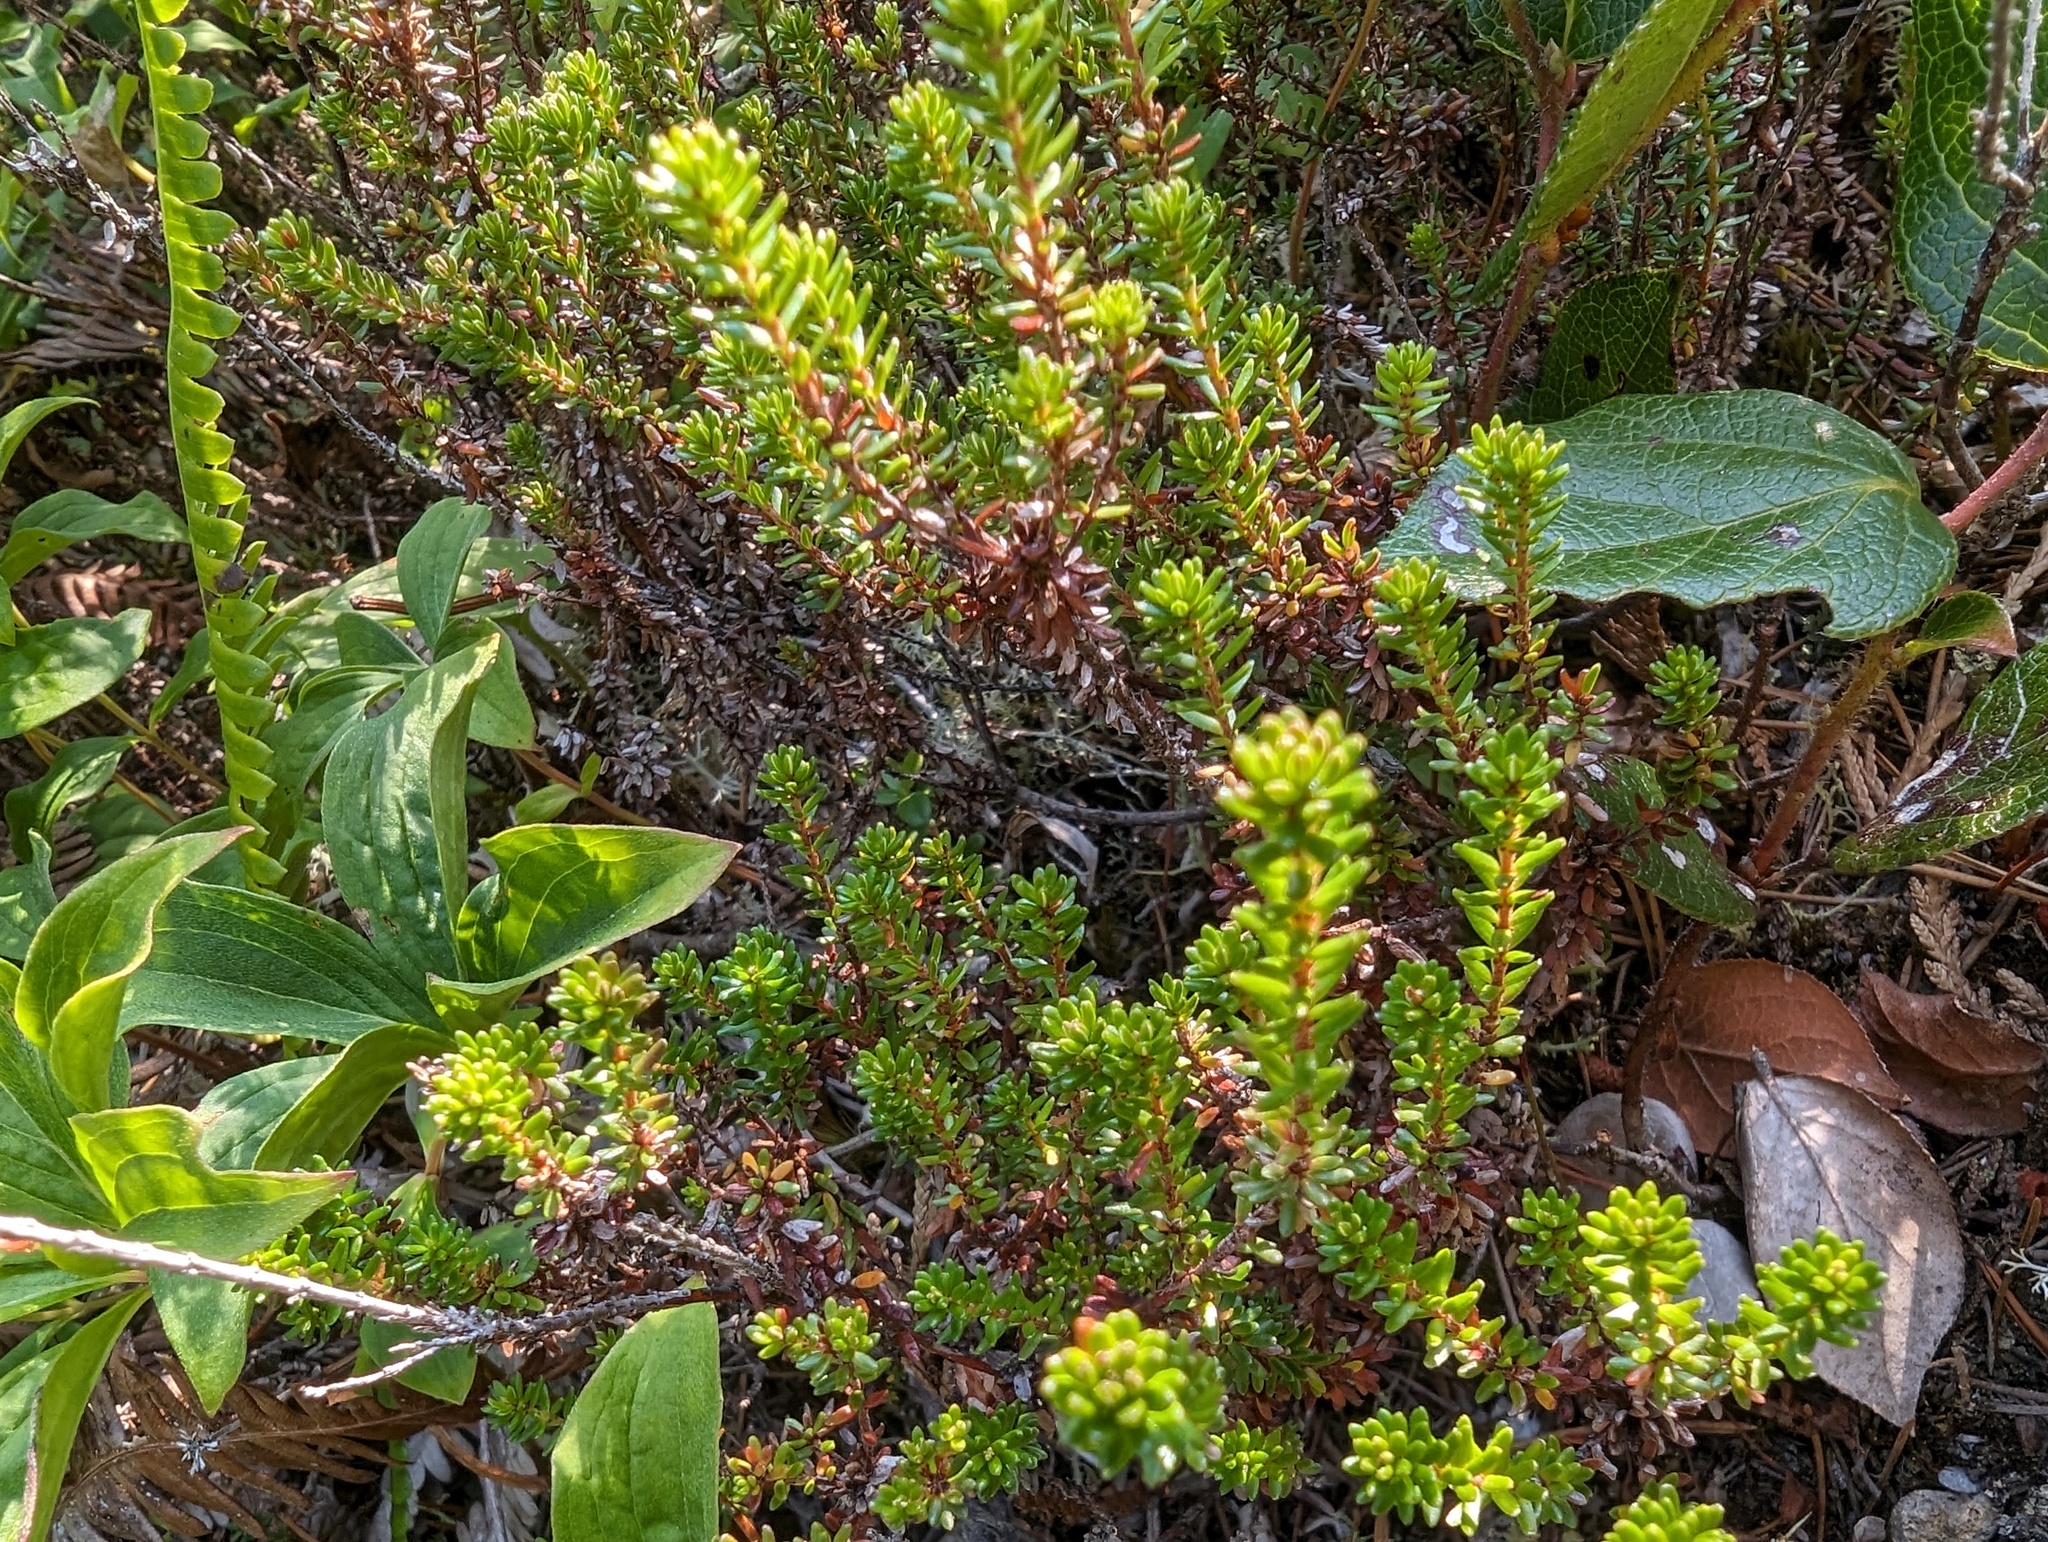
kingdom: Plantae
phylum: Tracheophyta
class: Magnoliopsida
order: Ericales
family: Ericaceae
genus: Empetrum
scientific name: Empetrum nigrum
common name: Black crowberry
